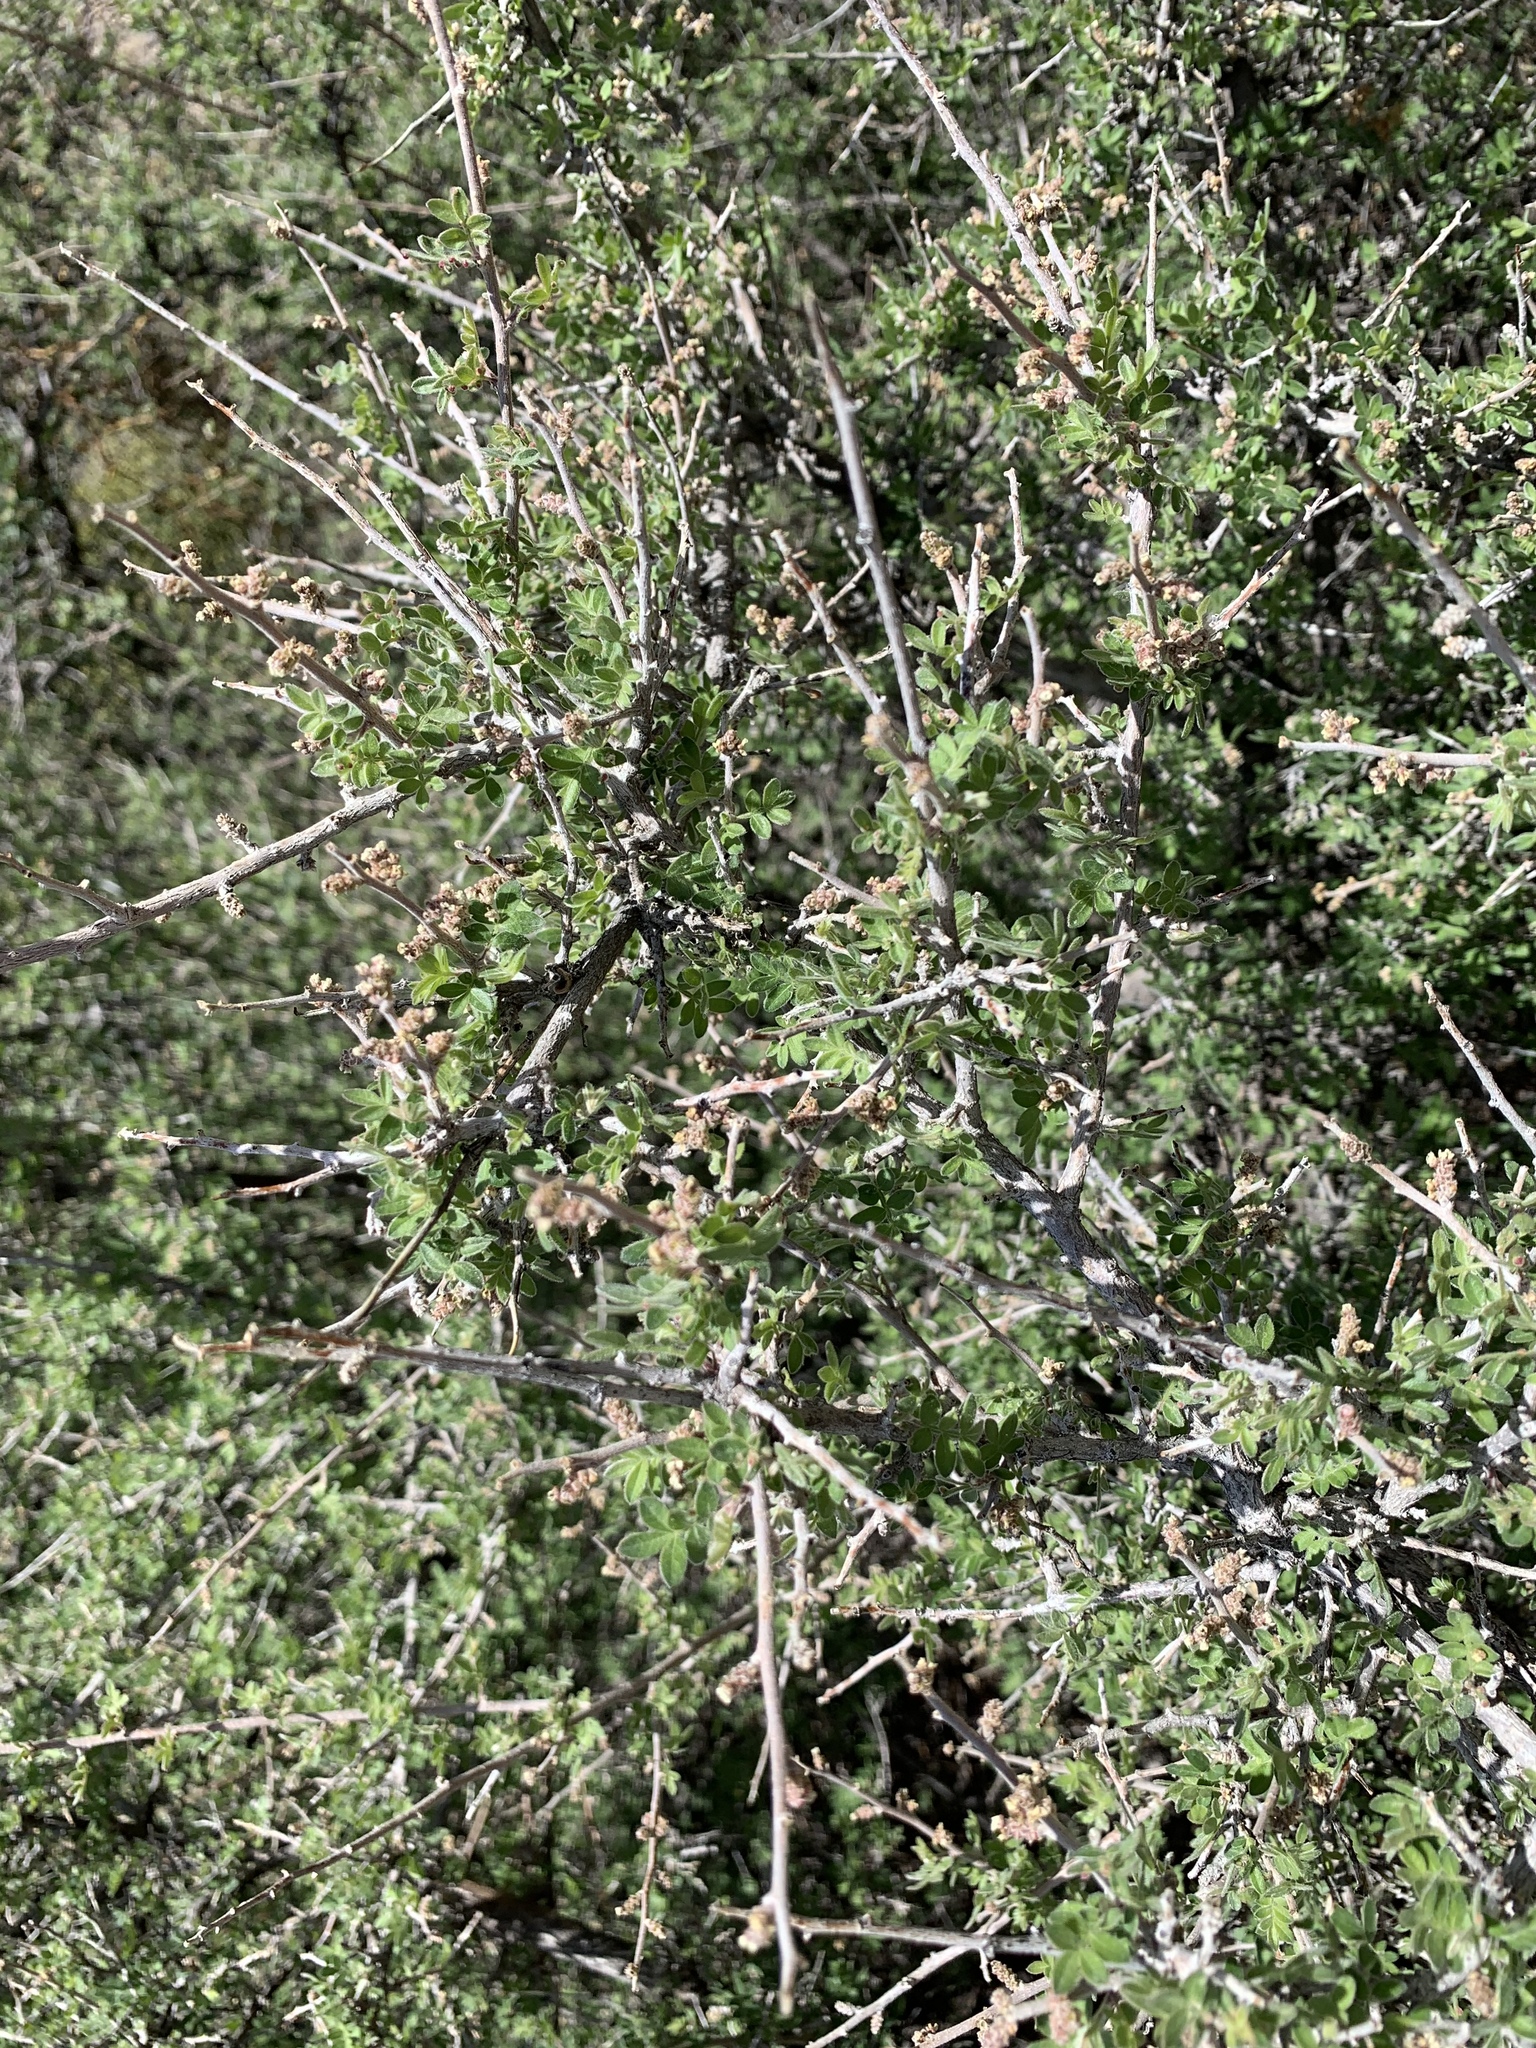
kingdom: Plantae
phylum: Tracheophyta
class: Magnoliopsida
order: Sapindales
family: Anacardiaceae
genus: Rhus
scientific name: Rhus microphylla
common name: Desert sumac
